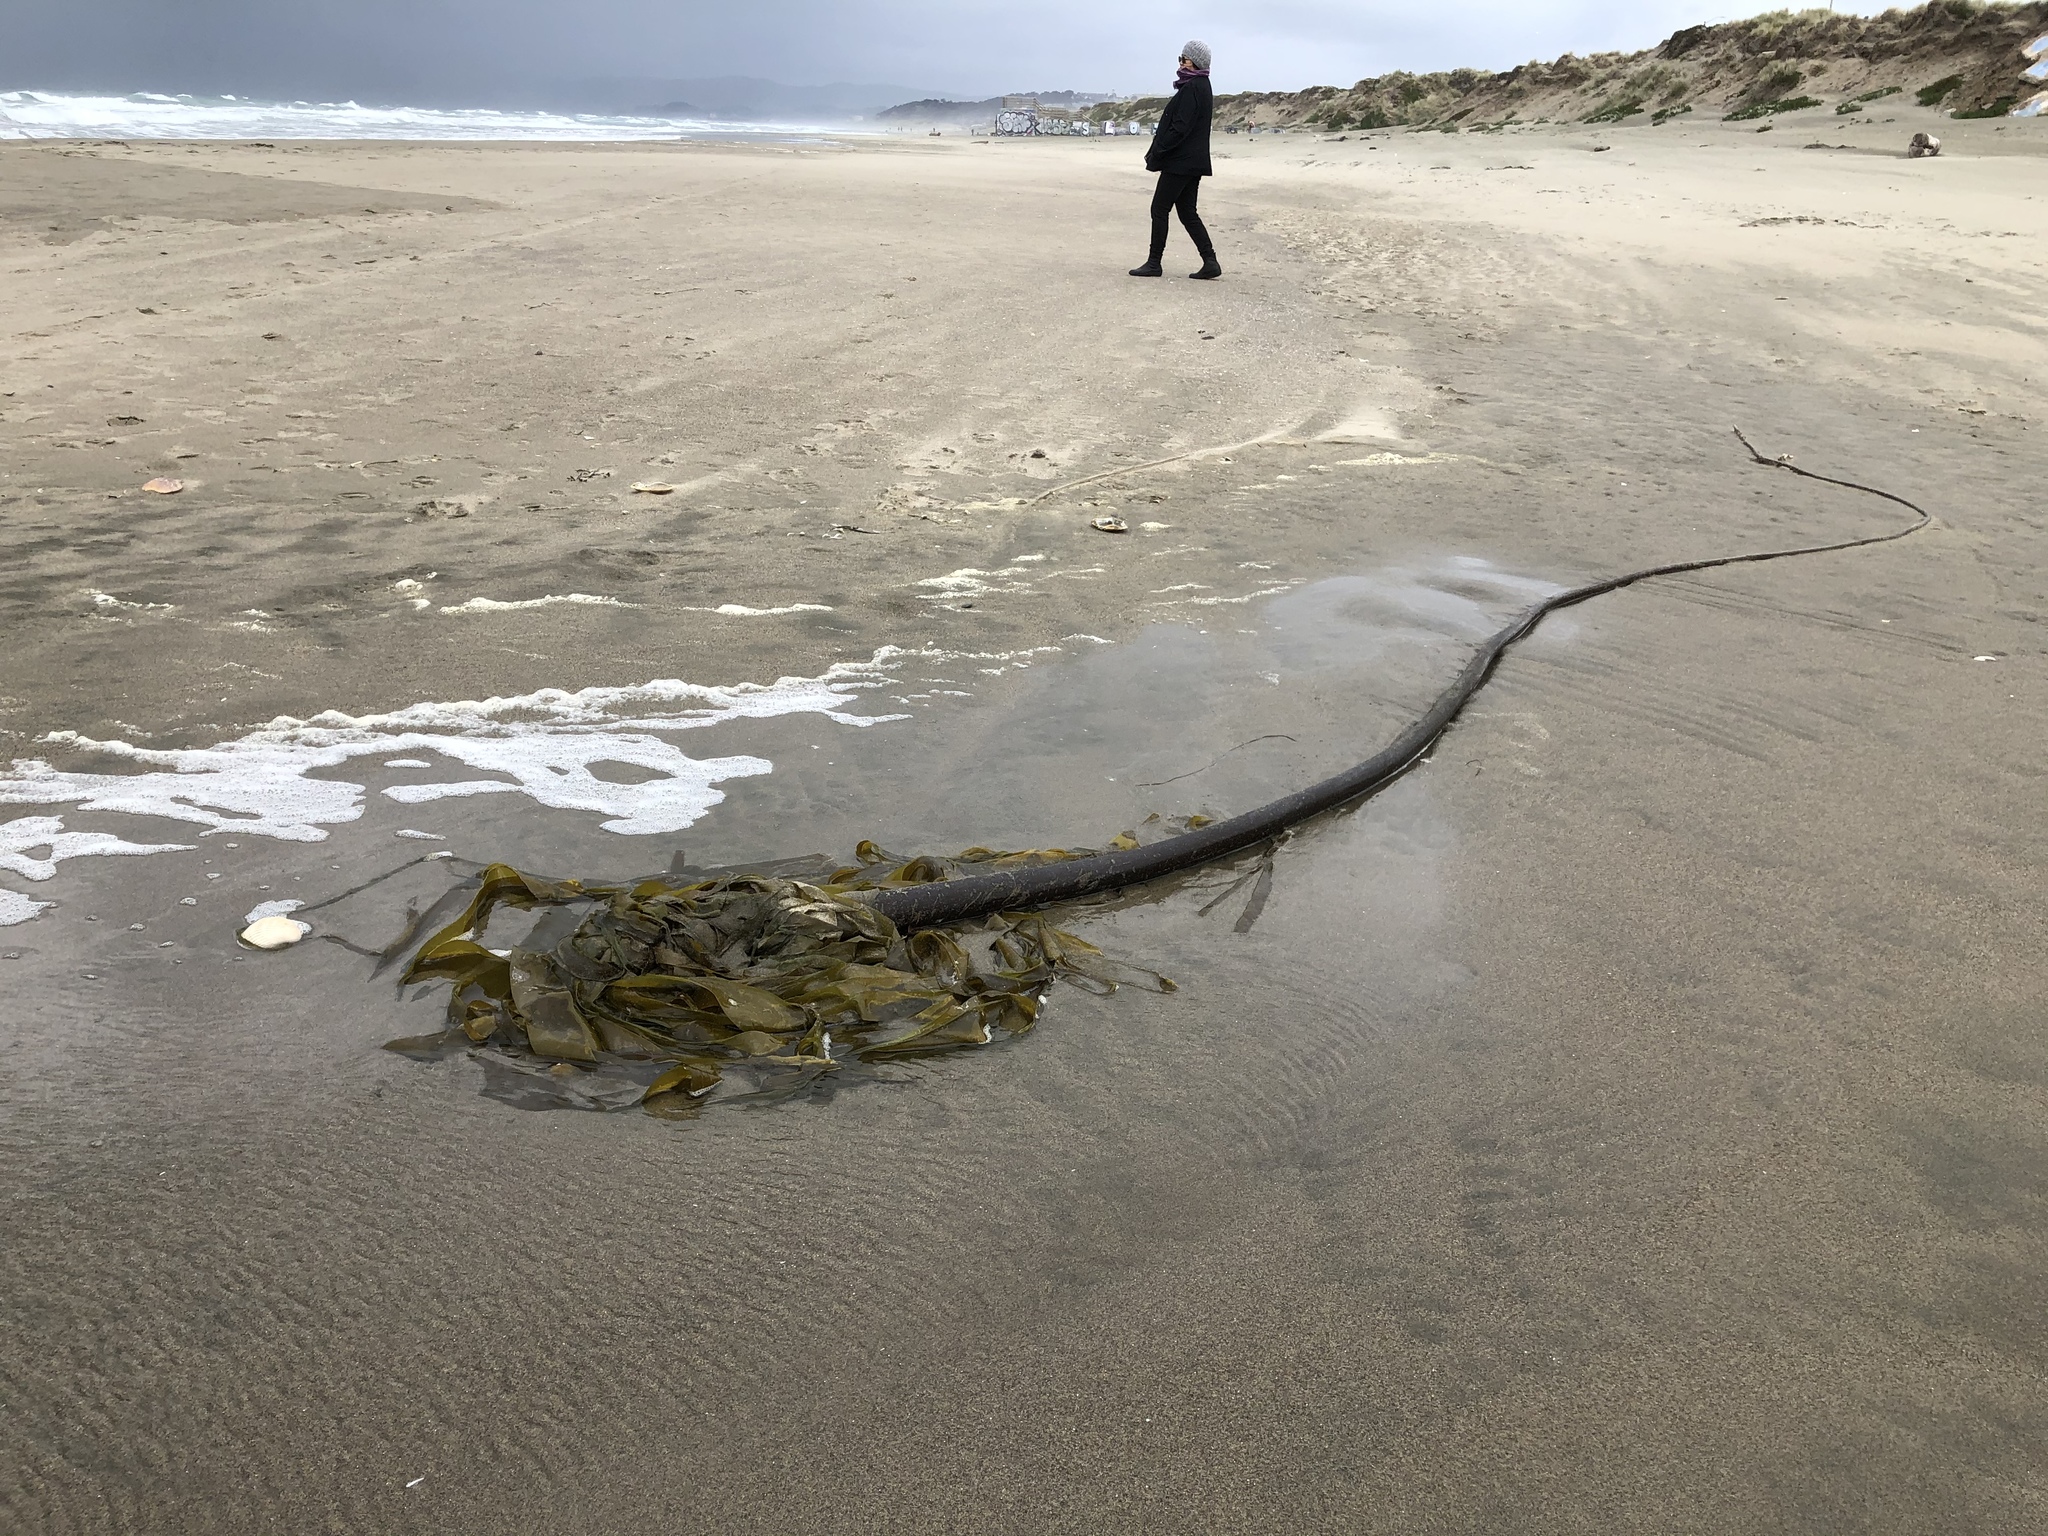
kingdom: Chromista
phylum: Ochrophyta
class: Phaeophyceae
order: Laminariales
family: Laminariaceae
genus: Nereocystis
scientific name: Nereocystis luetkeana
